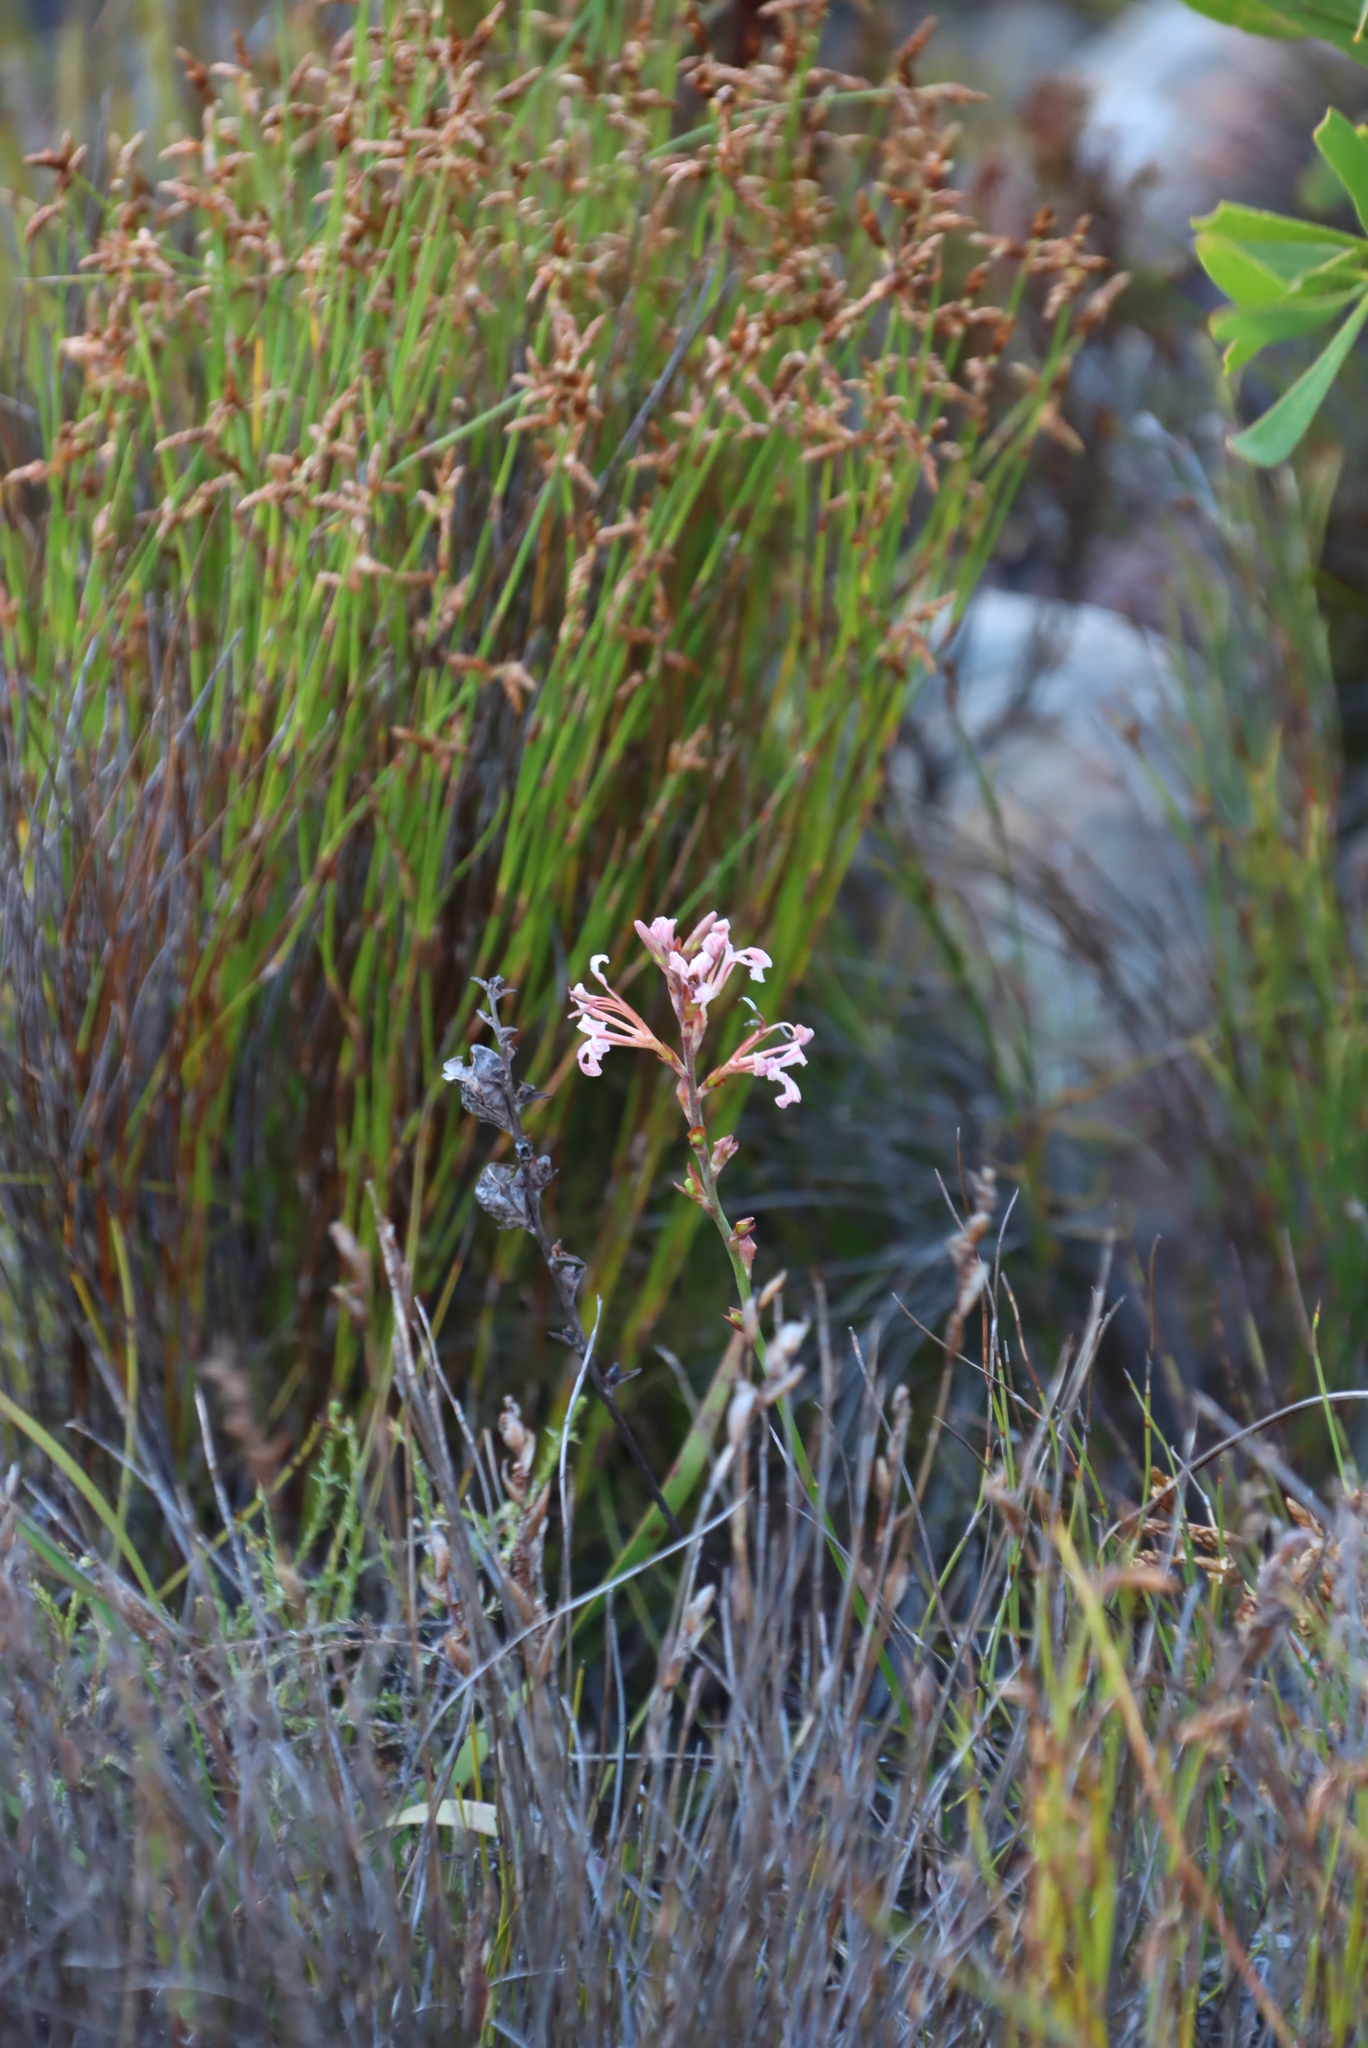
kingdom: Plantae
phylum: Tracheophyta
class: Liliopsida
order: Asparagales
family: Iridaceae
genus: Tritoniopsis
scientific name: Tritoniopsis dodii
